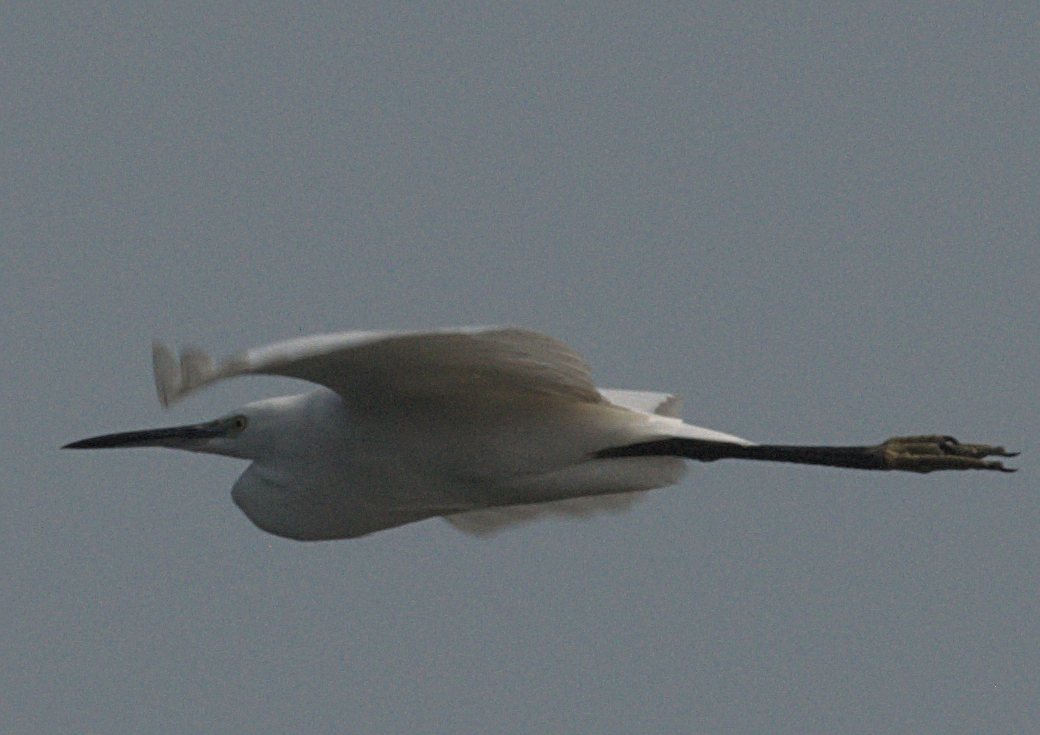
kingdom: Animalia
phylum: Chordata
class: Aves
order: Pelecaniformes
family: Ardeidae
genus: Egretta
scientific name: Egretta garzetta
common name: Little egret
